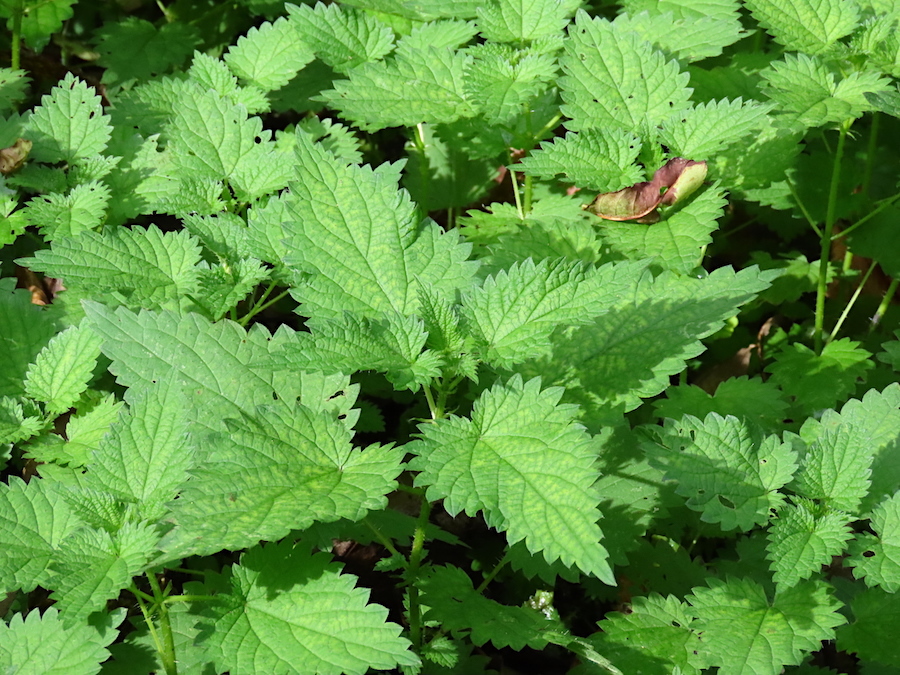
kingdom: Plantae
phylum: Tracheophyta
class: Magnoliopsida
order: Rosales
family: Urticaceae
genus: Urtica
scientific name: Urtica dioica
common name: Common nettle
